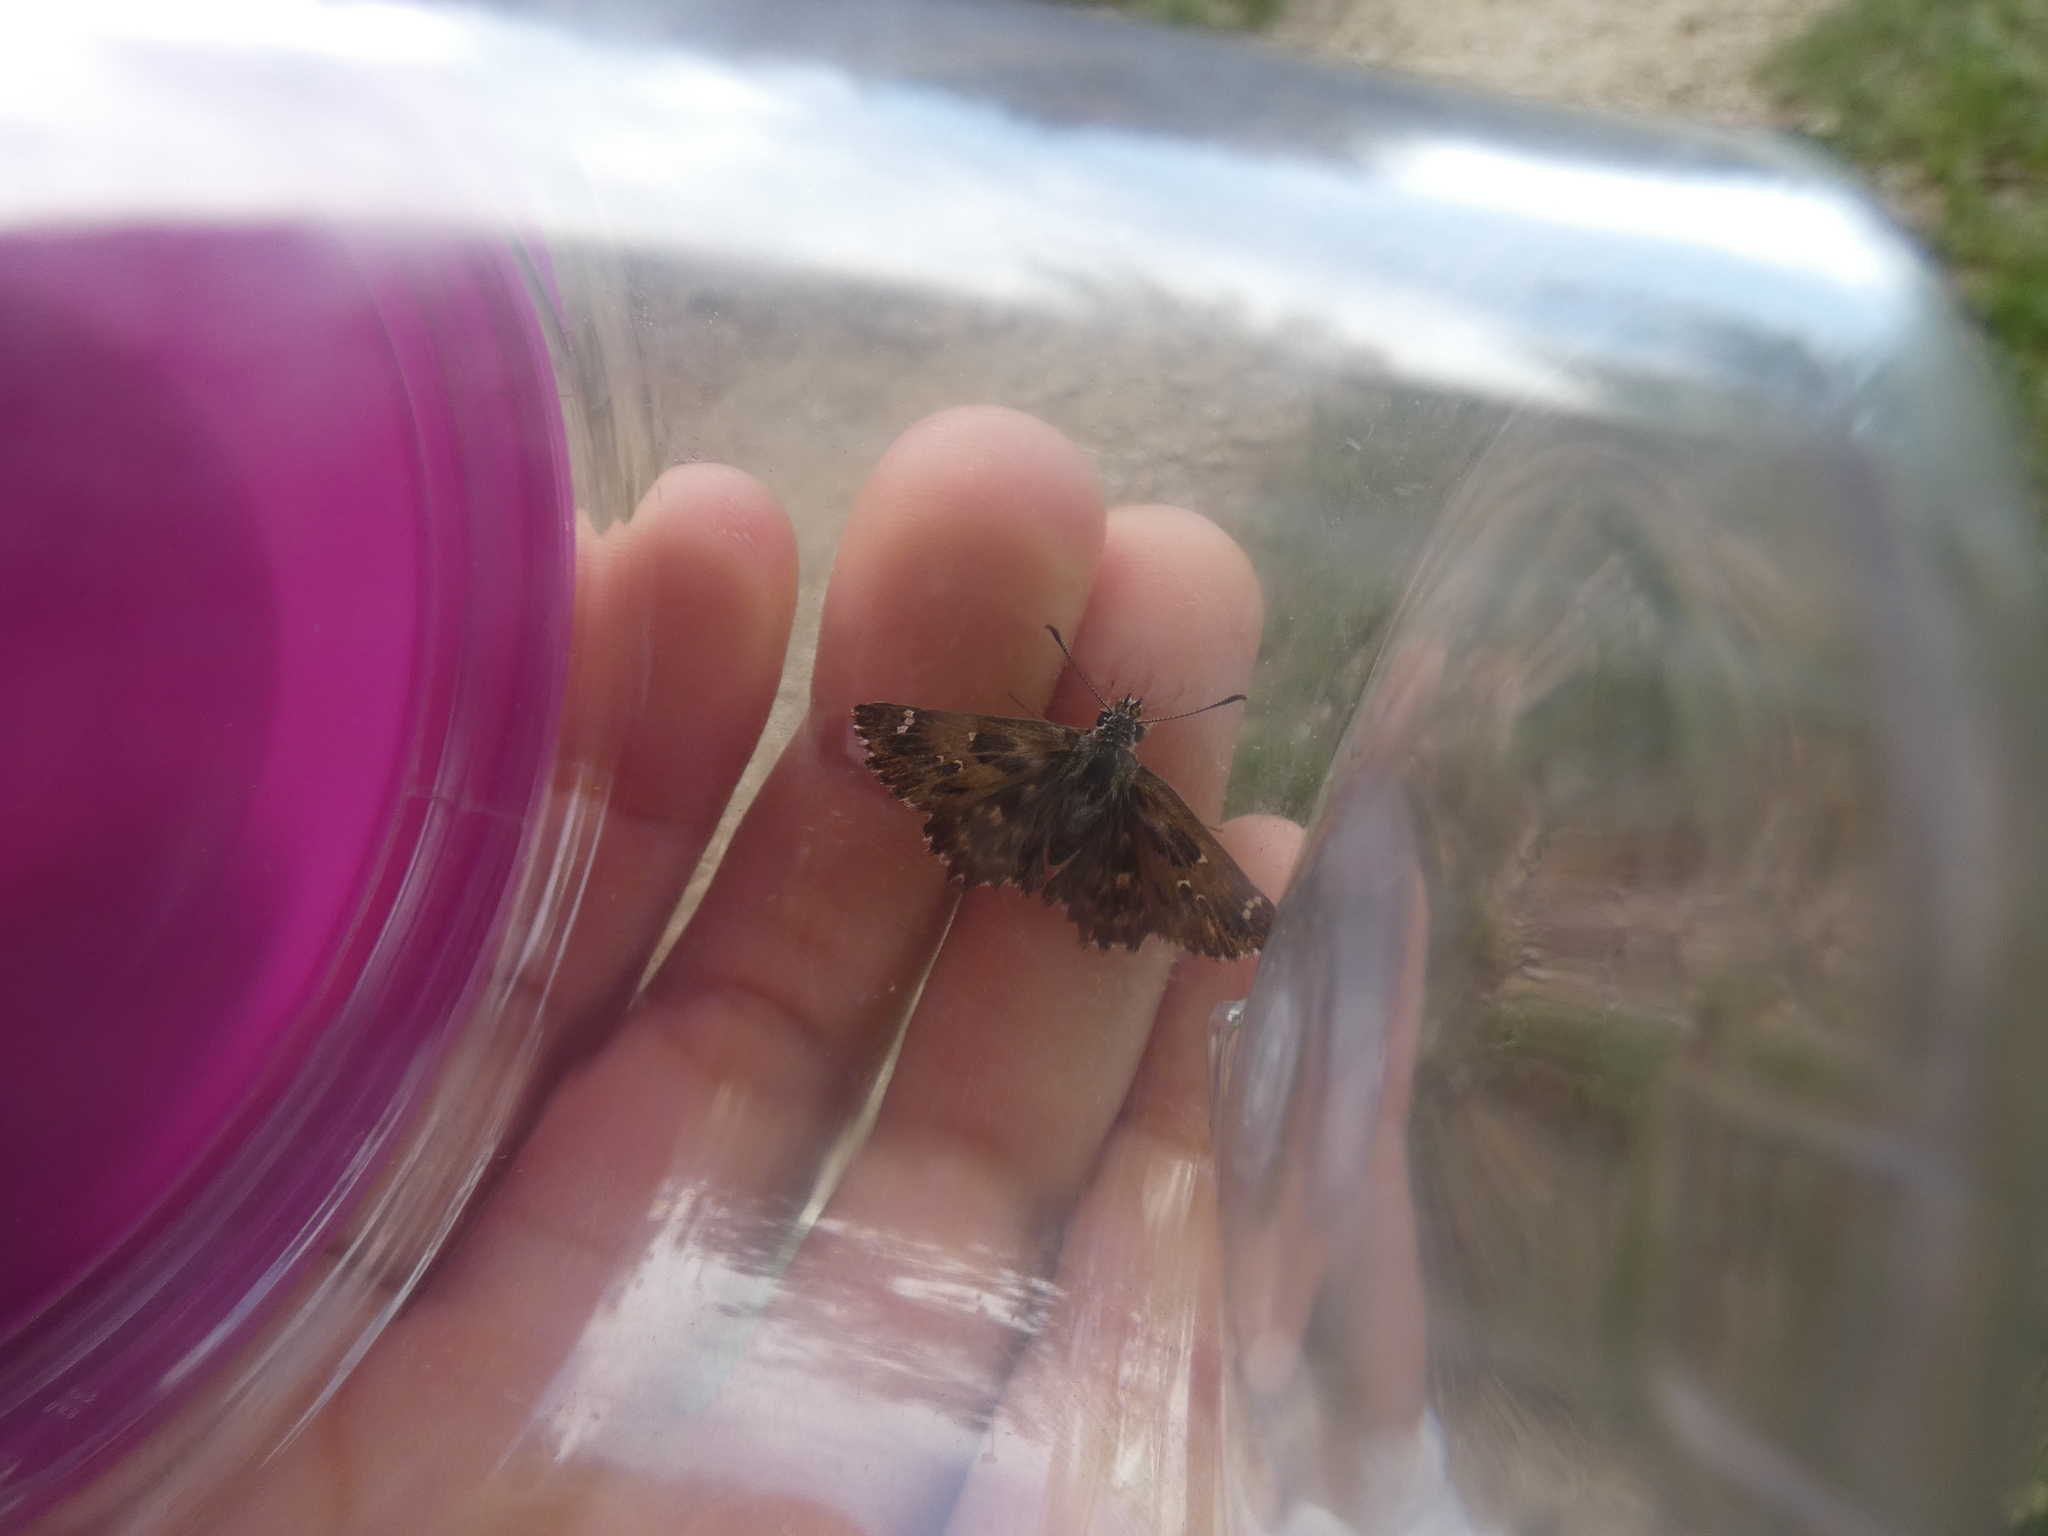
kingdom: Animalia
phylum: Arthropoda
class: Insecta
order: Lepidoptera
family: Hesperiidae
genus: Carcharodus
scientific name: Carcharodus alceae
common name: Mallow skipper
